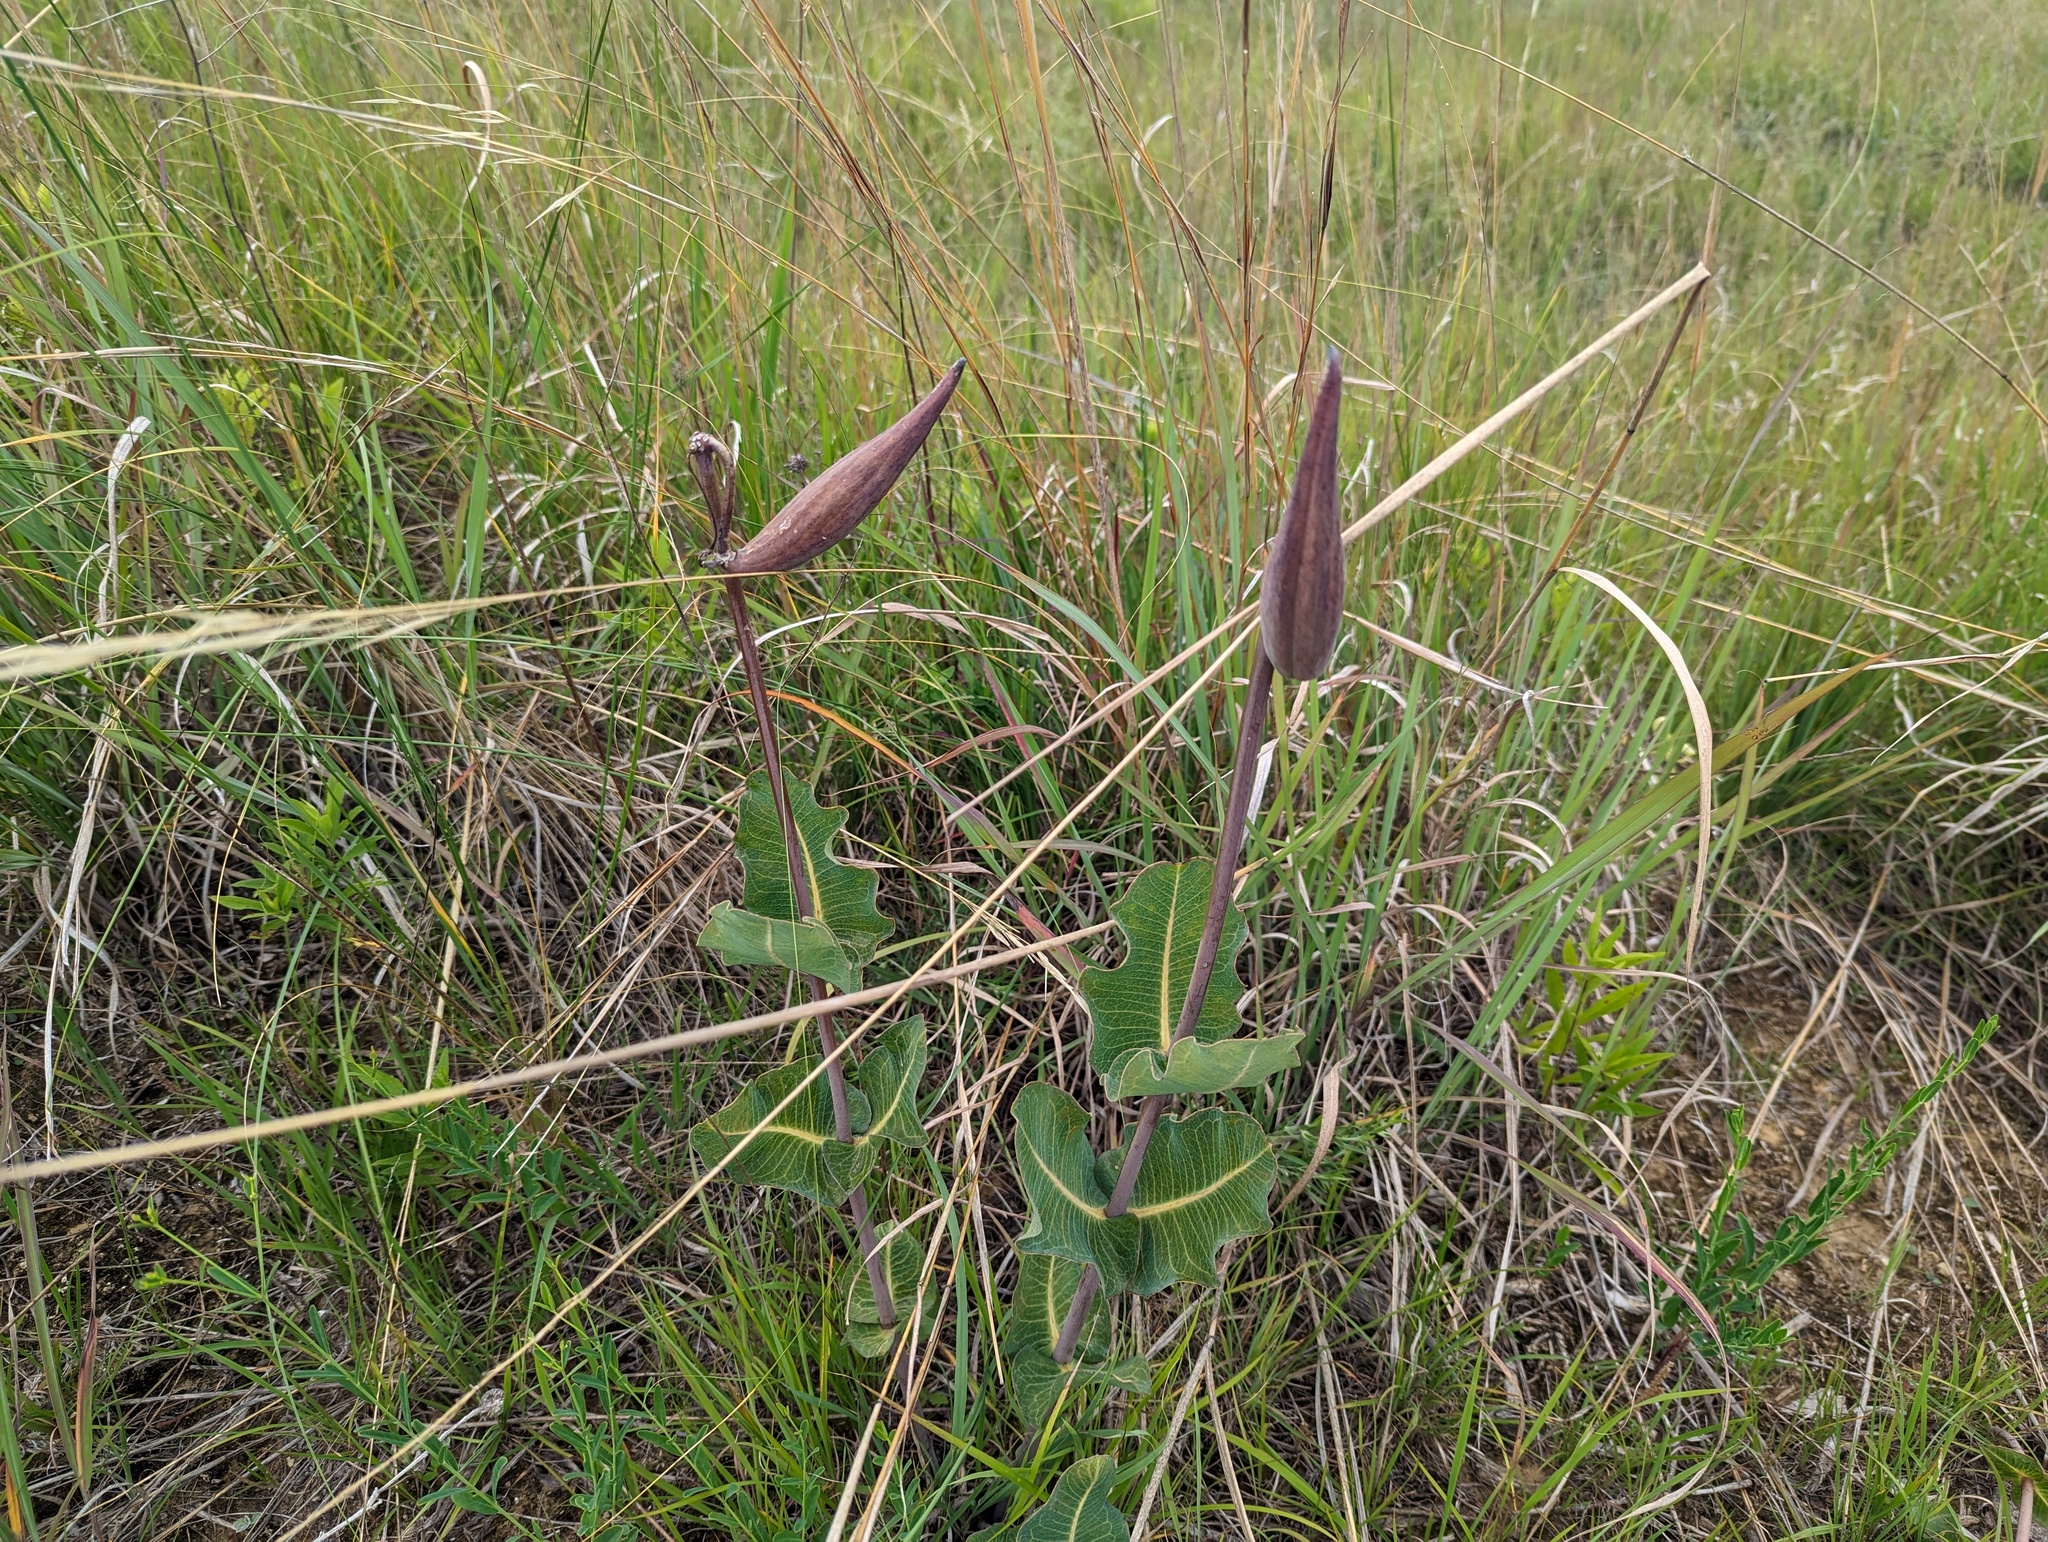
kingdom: Plantae
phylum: Tracheophyta
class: Magnoliopsida
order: Gentianales
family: Apocynaceae
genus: Asclepias
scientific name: Asclepias amplexicaulis
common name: Blunt-leaf milkweed
